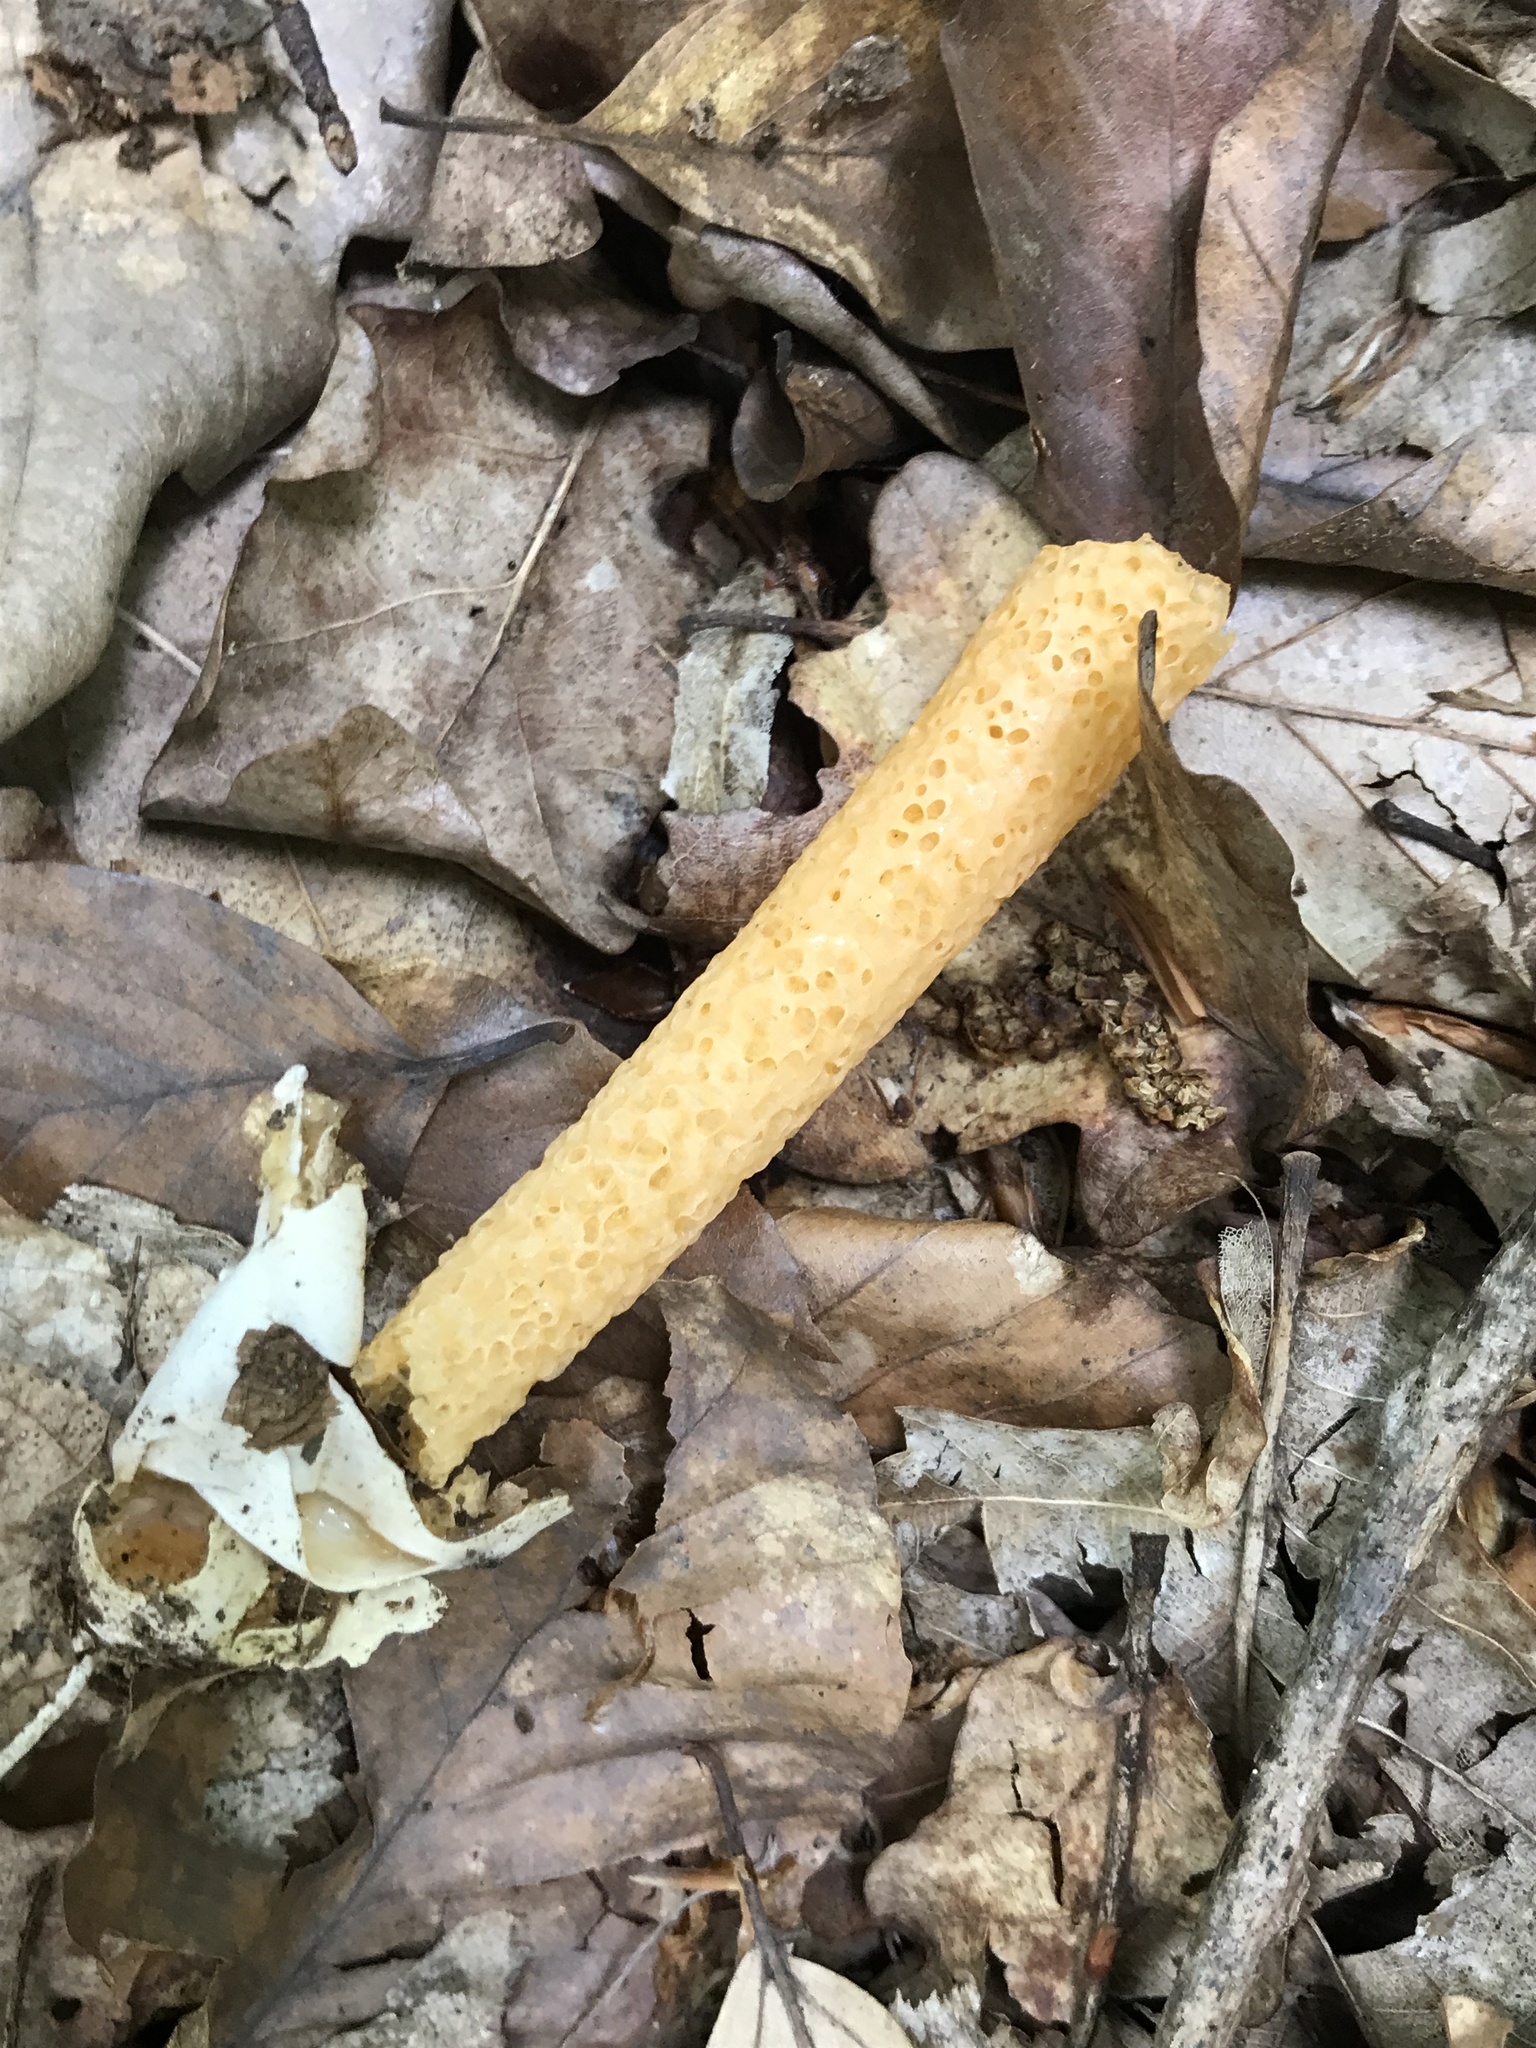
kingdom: Fungi
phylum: Basidiomycota
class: Agaricomycetes
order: Phallales
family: Phallaceae
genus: Mutinus
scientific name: Mutinus caninus
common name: Dog stinkhorn
